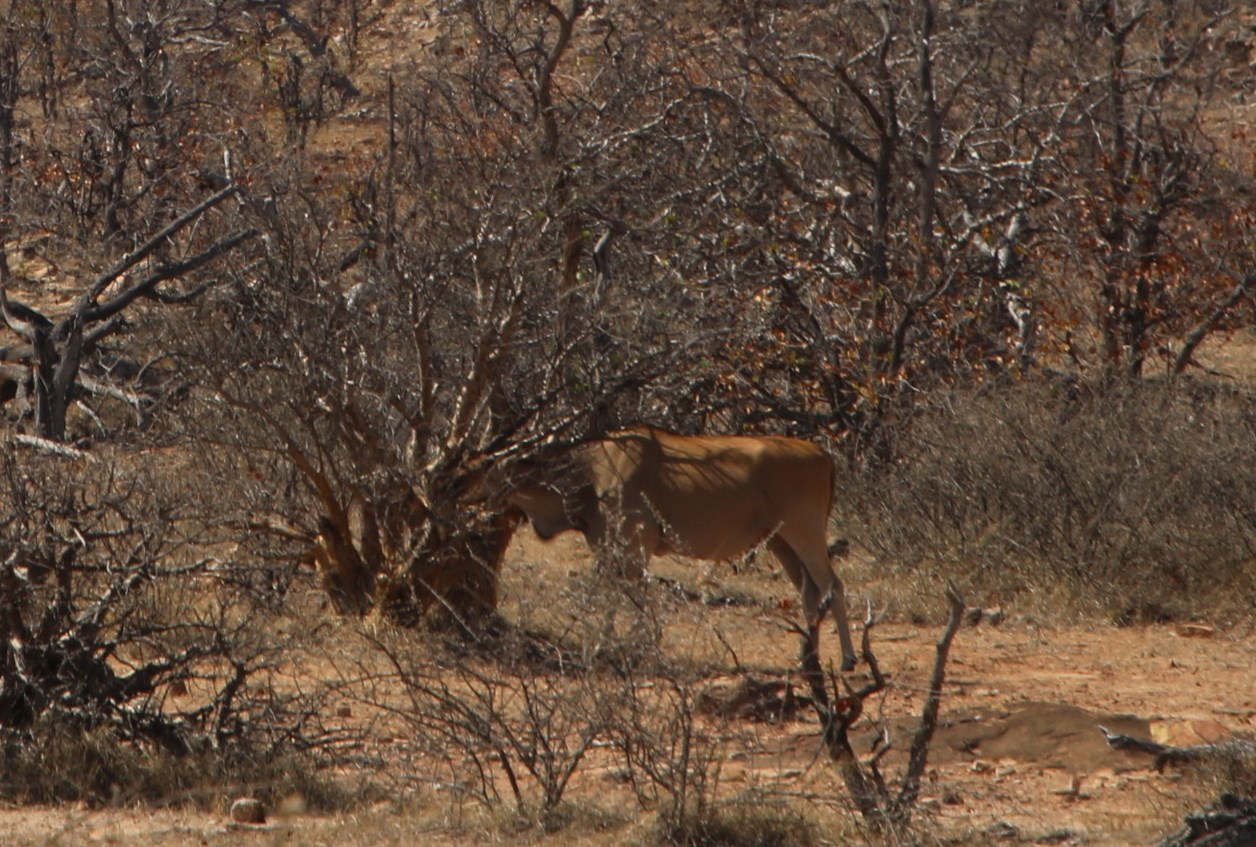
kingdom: Animalia
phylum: Chordata
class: Mammalia
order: Artiodactyla
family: Bovidae
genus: Taurotragus
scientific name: Taurotragus oryx
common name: Common eland
